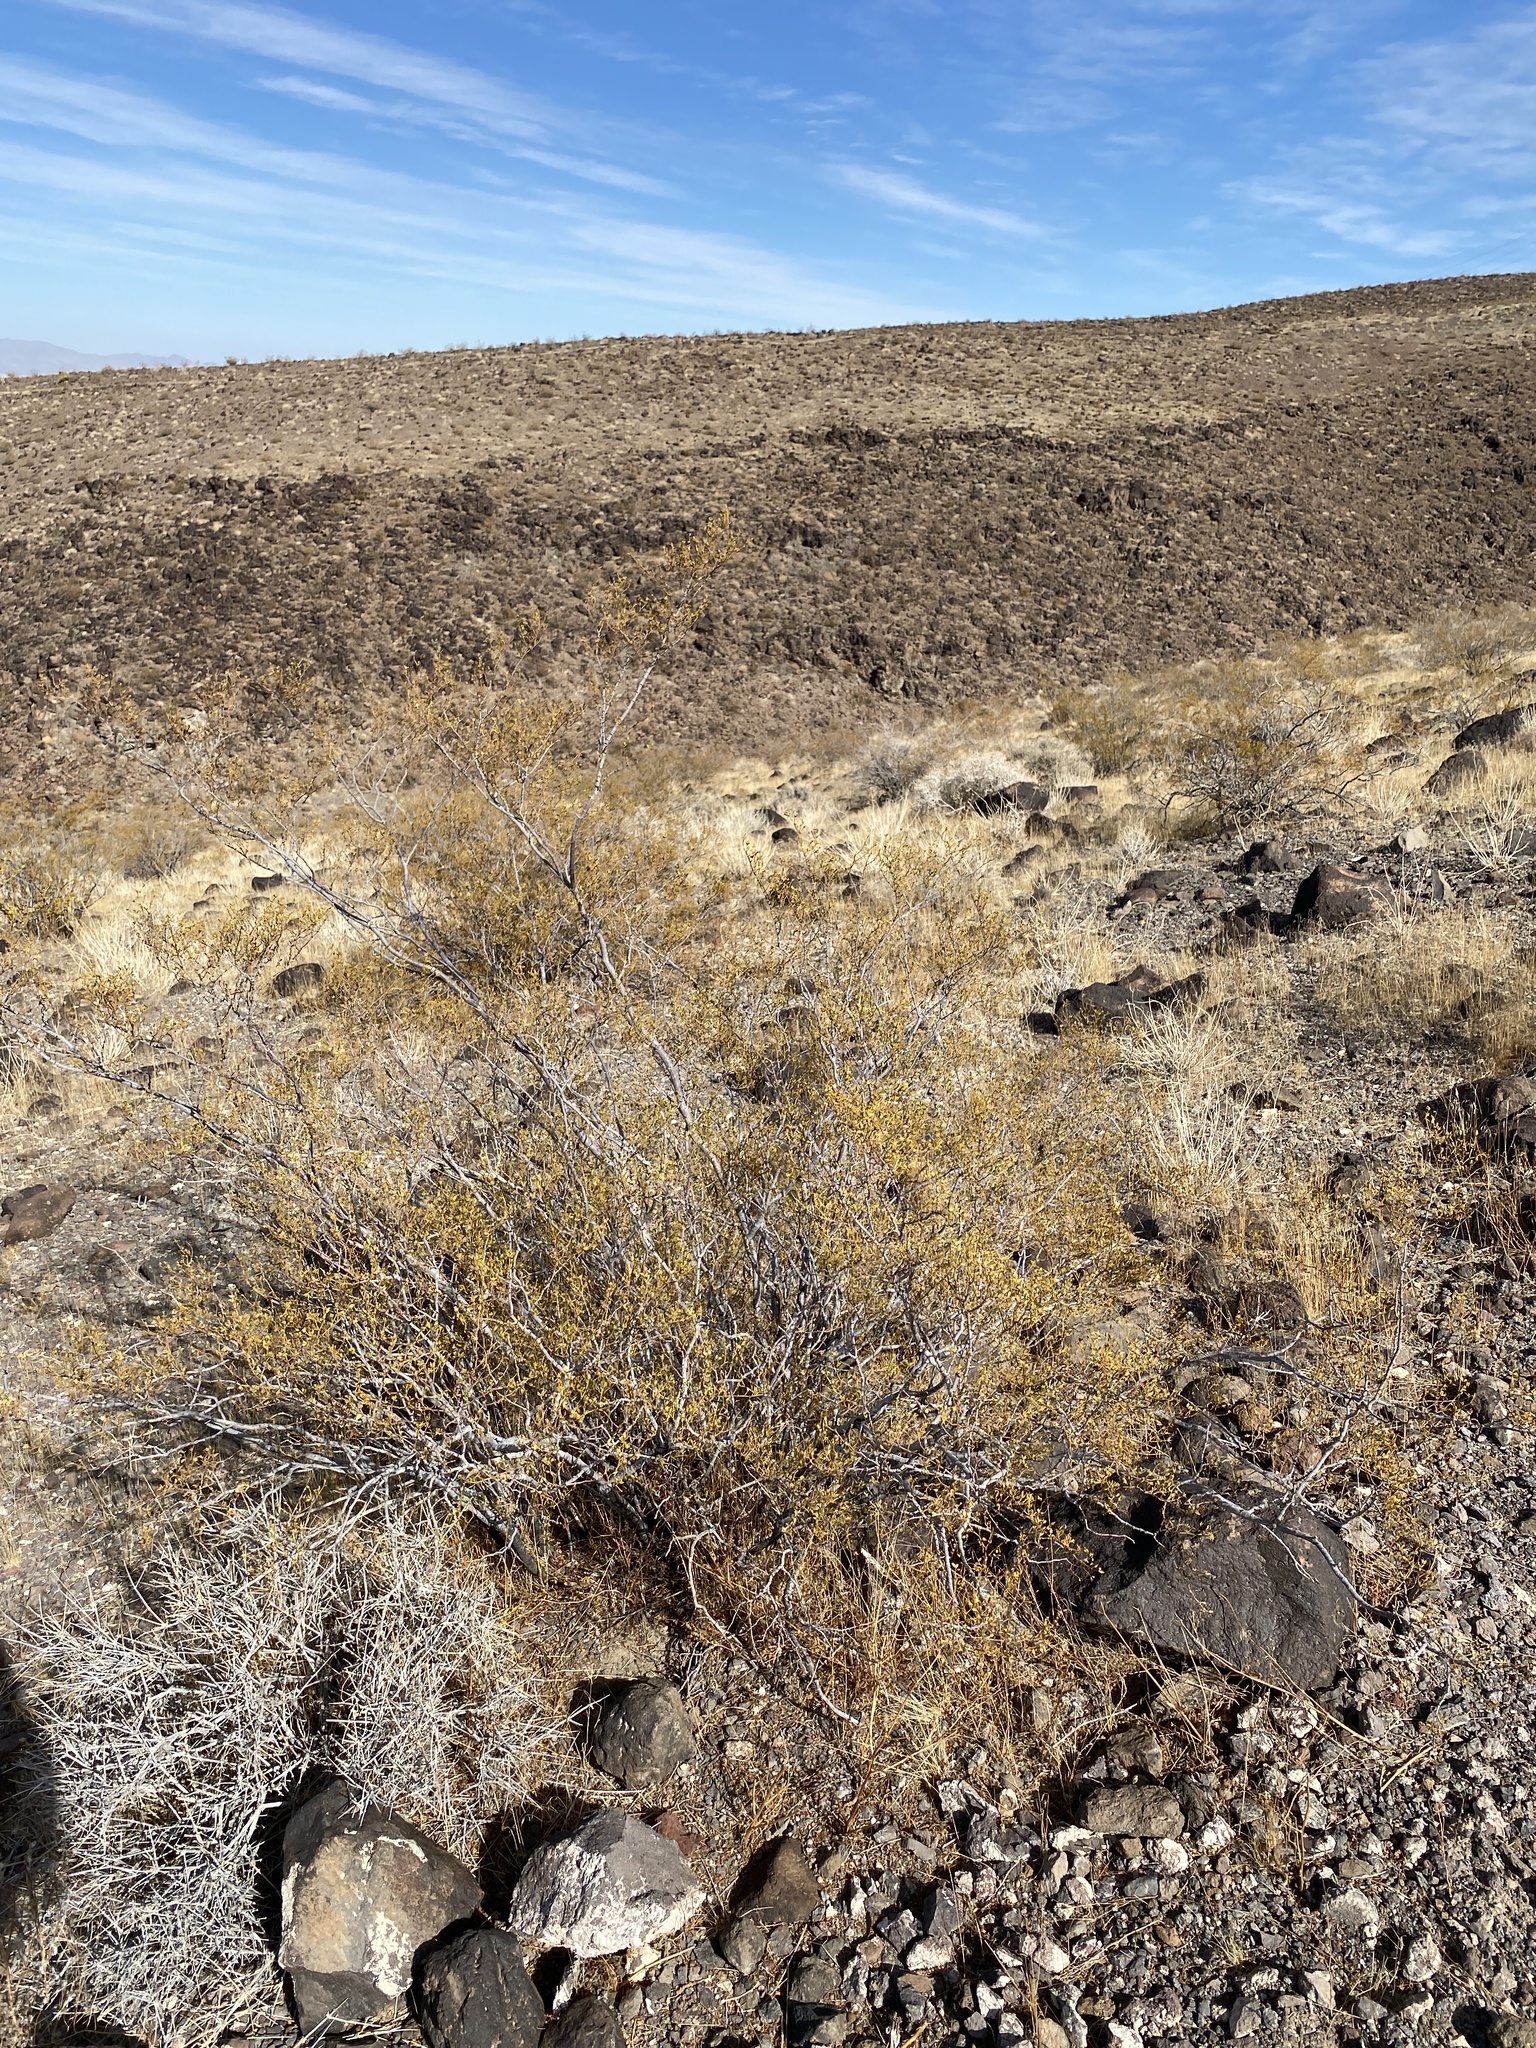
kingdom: Plantae
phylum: Tracheophyta
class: Magnoliopsida
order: Zygophyllales
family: Zygophyllaceae
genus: Larrea
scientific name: Larrea tridentata
